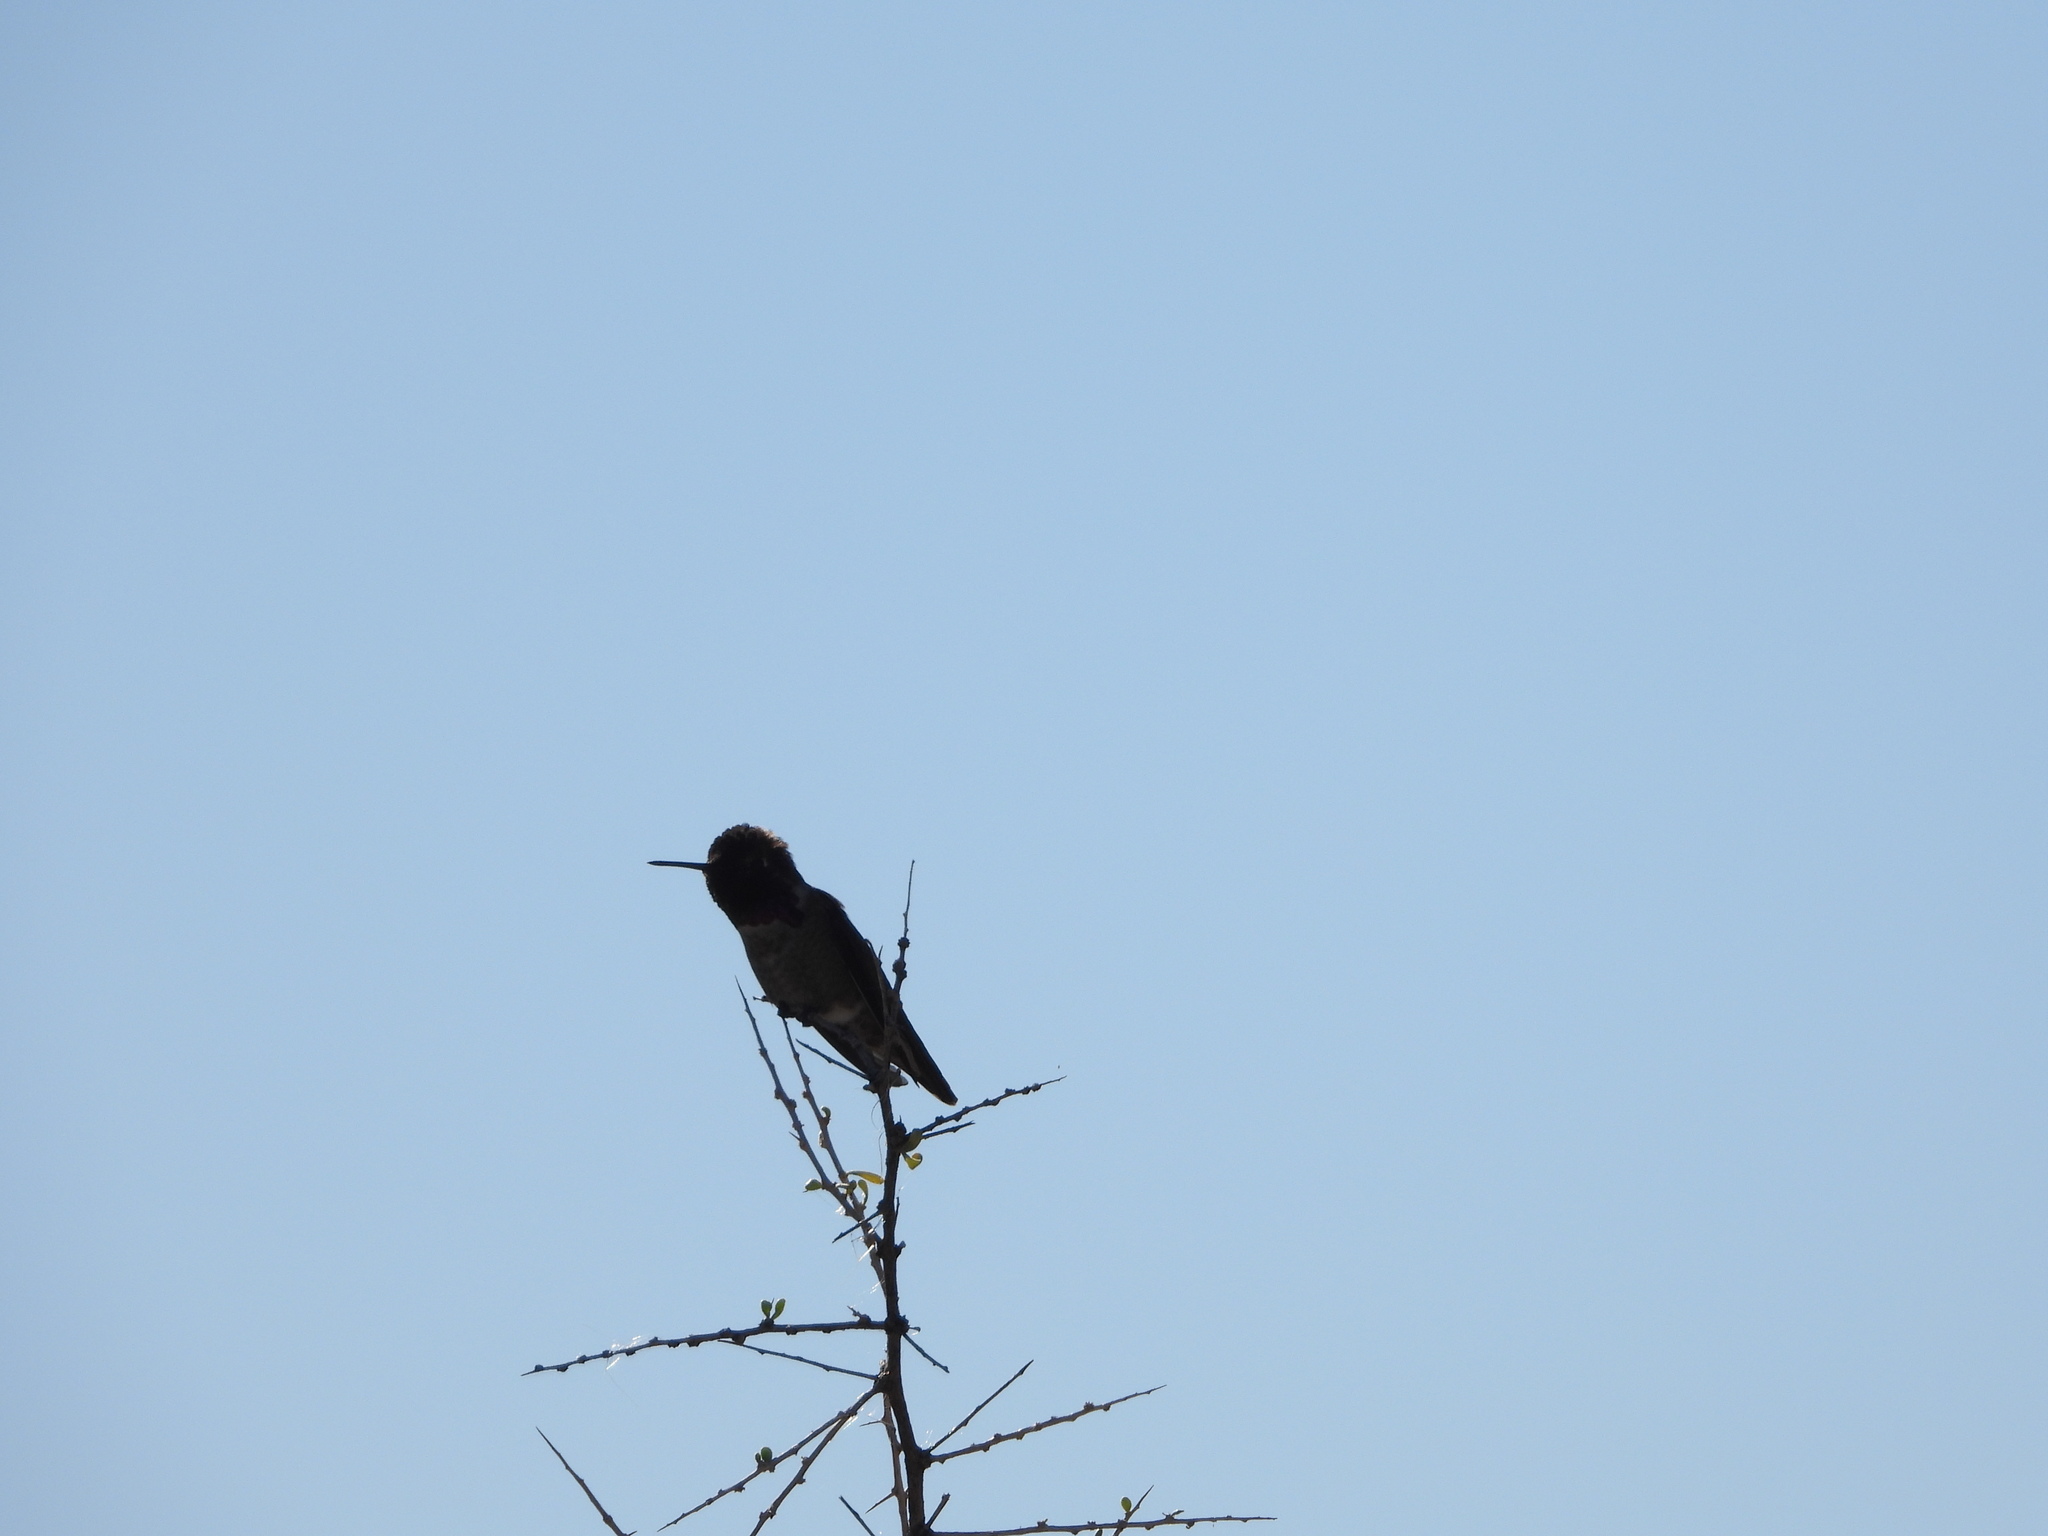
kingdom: Animalia
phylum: Chordata
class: Aves
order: Apodiformes
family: Trochilidae
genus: Calypte
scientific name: Calypte anna
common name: Anna's hummingbird
